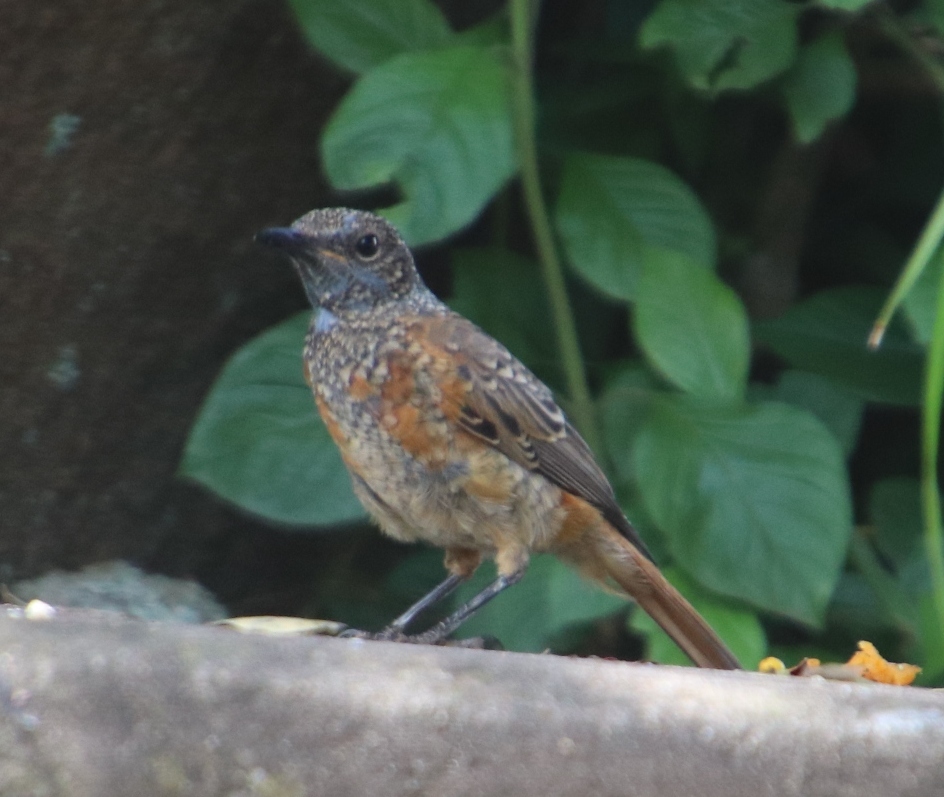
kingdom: Animalia
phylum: Chordata
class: Aves
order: Passeriformes
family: Muscicapidae
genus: Monticola
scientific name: Monticola rupestris
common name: Cape rock thrush
